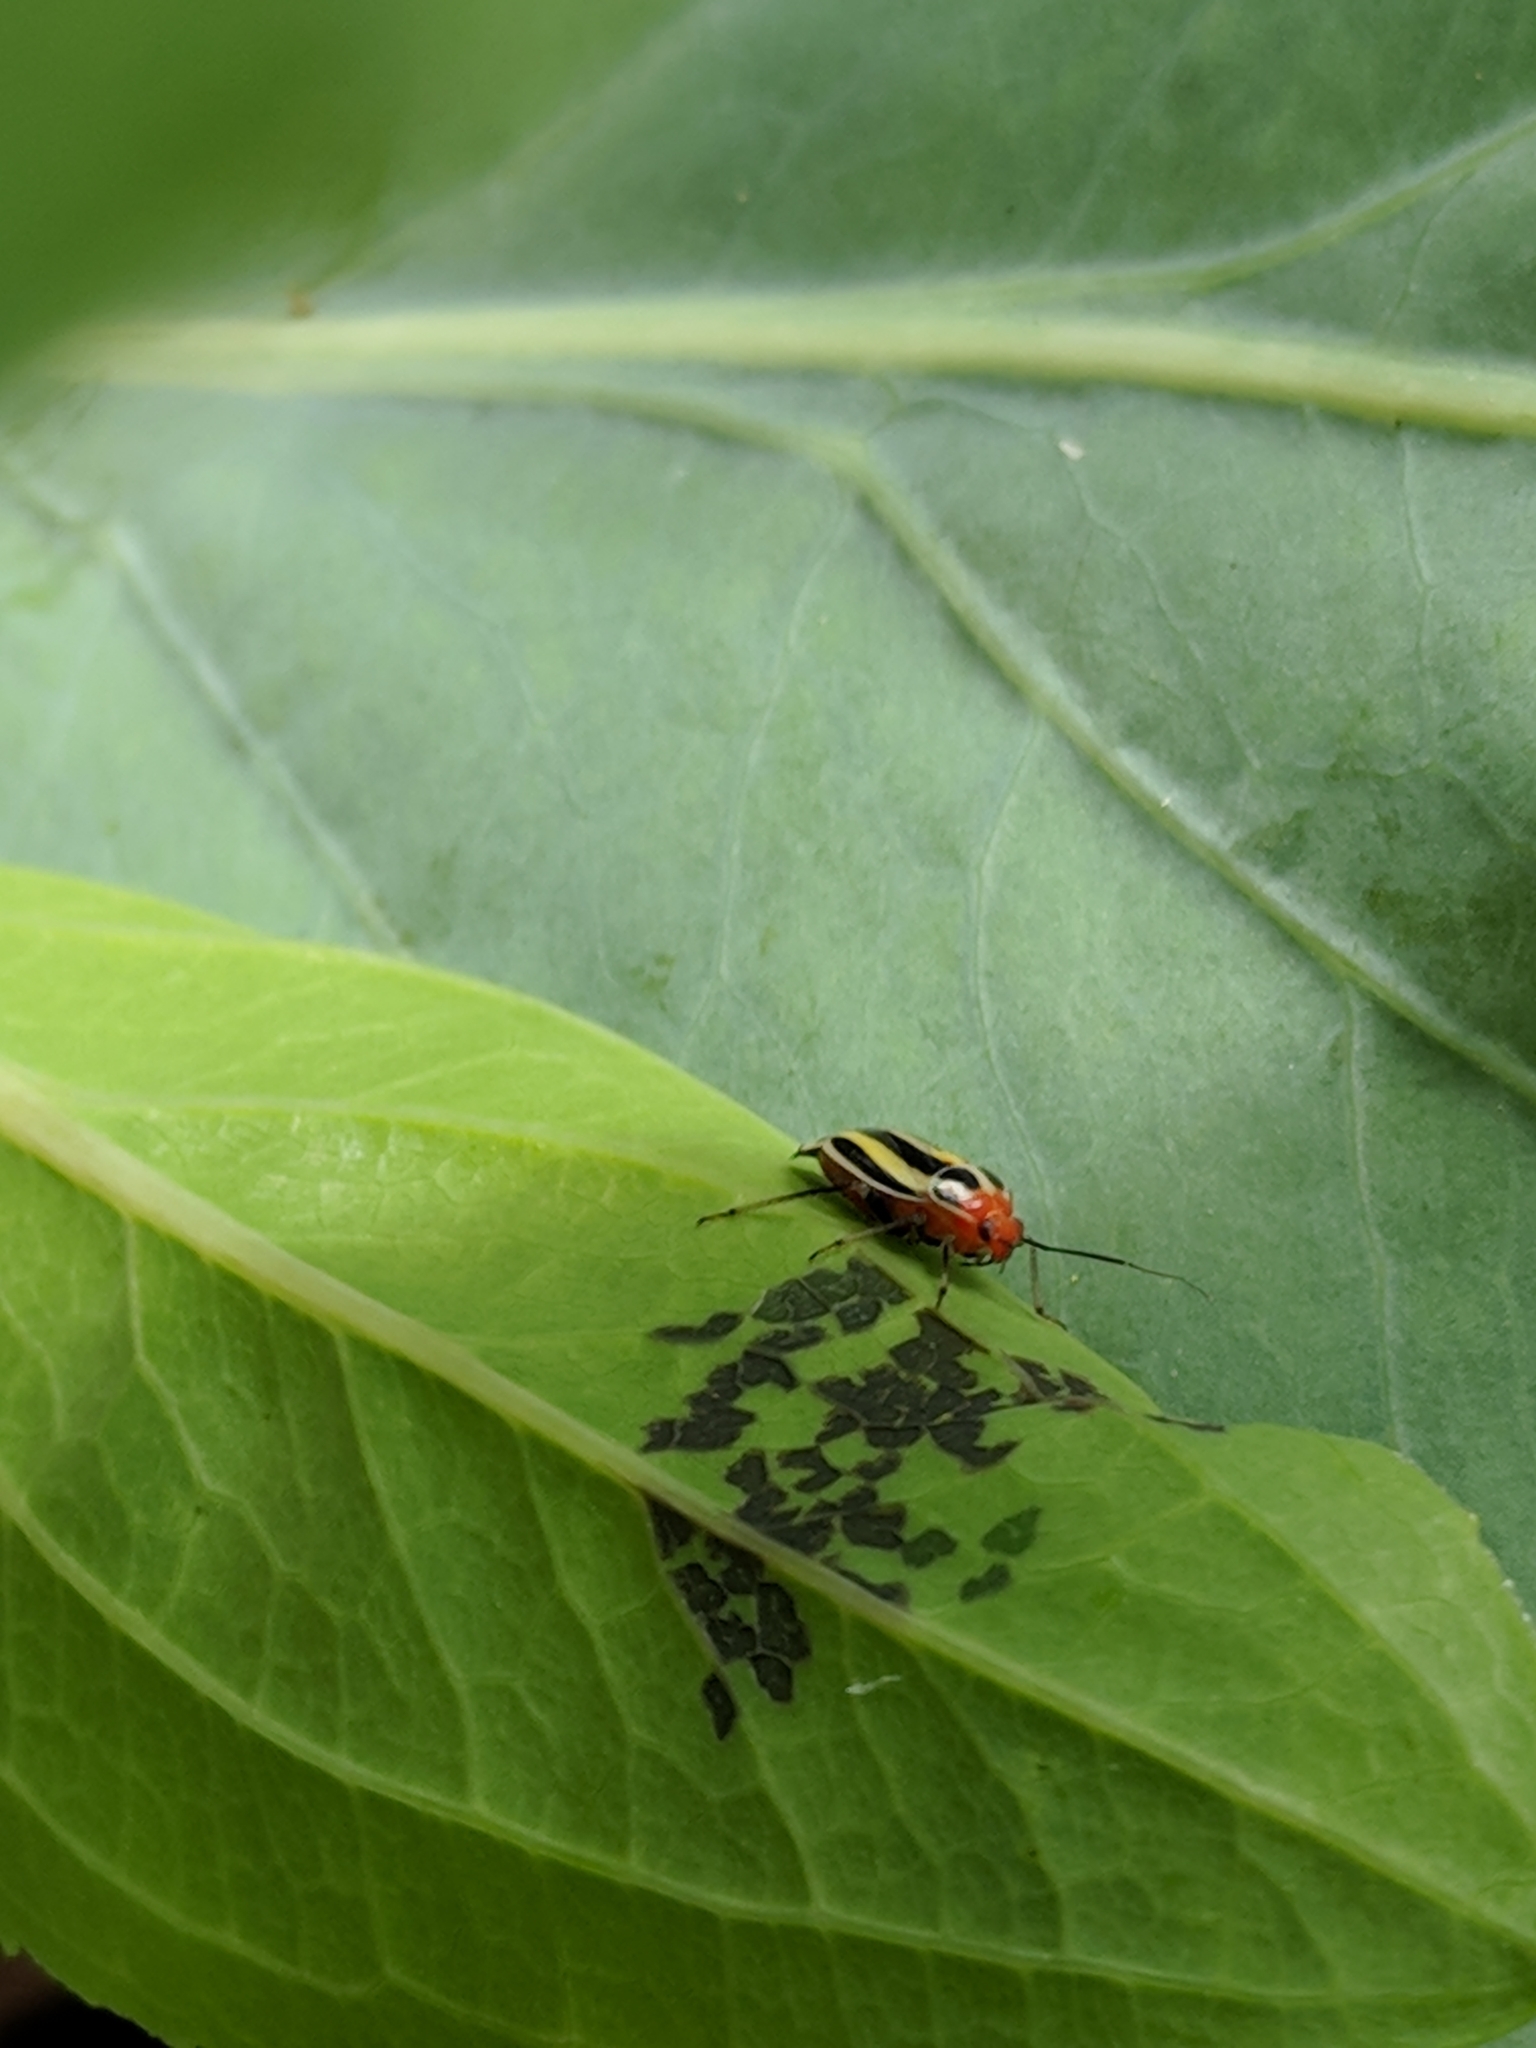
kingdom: Animalia
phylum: Arthropoda
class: Insecta
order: Hemiptera
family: Miridae
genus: Poecilocapsus
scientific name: Poecilocapsus lineatus
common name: Four-lined plant bug
